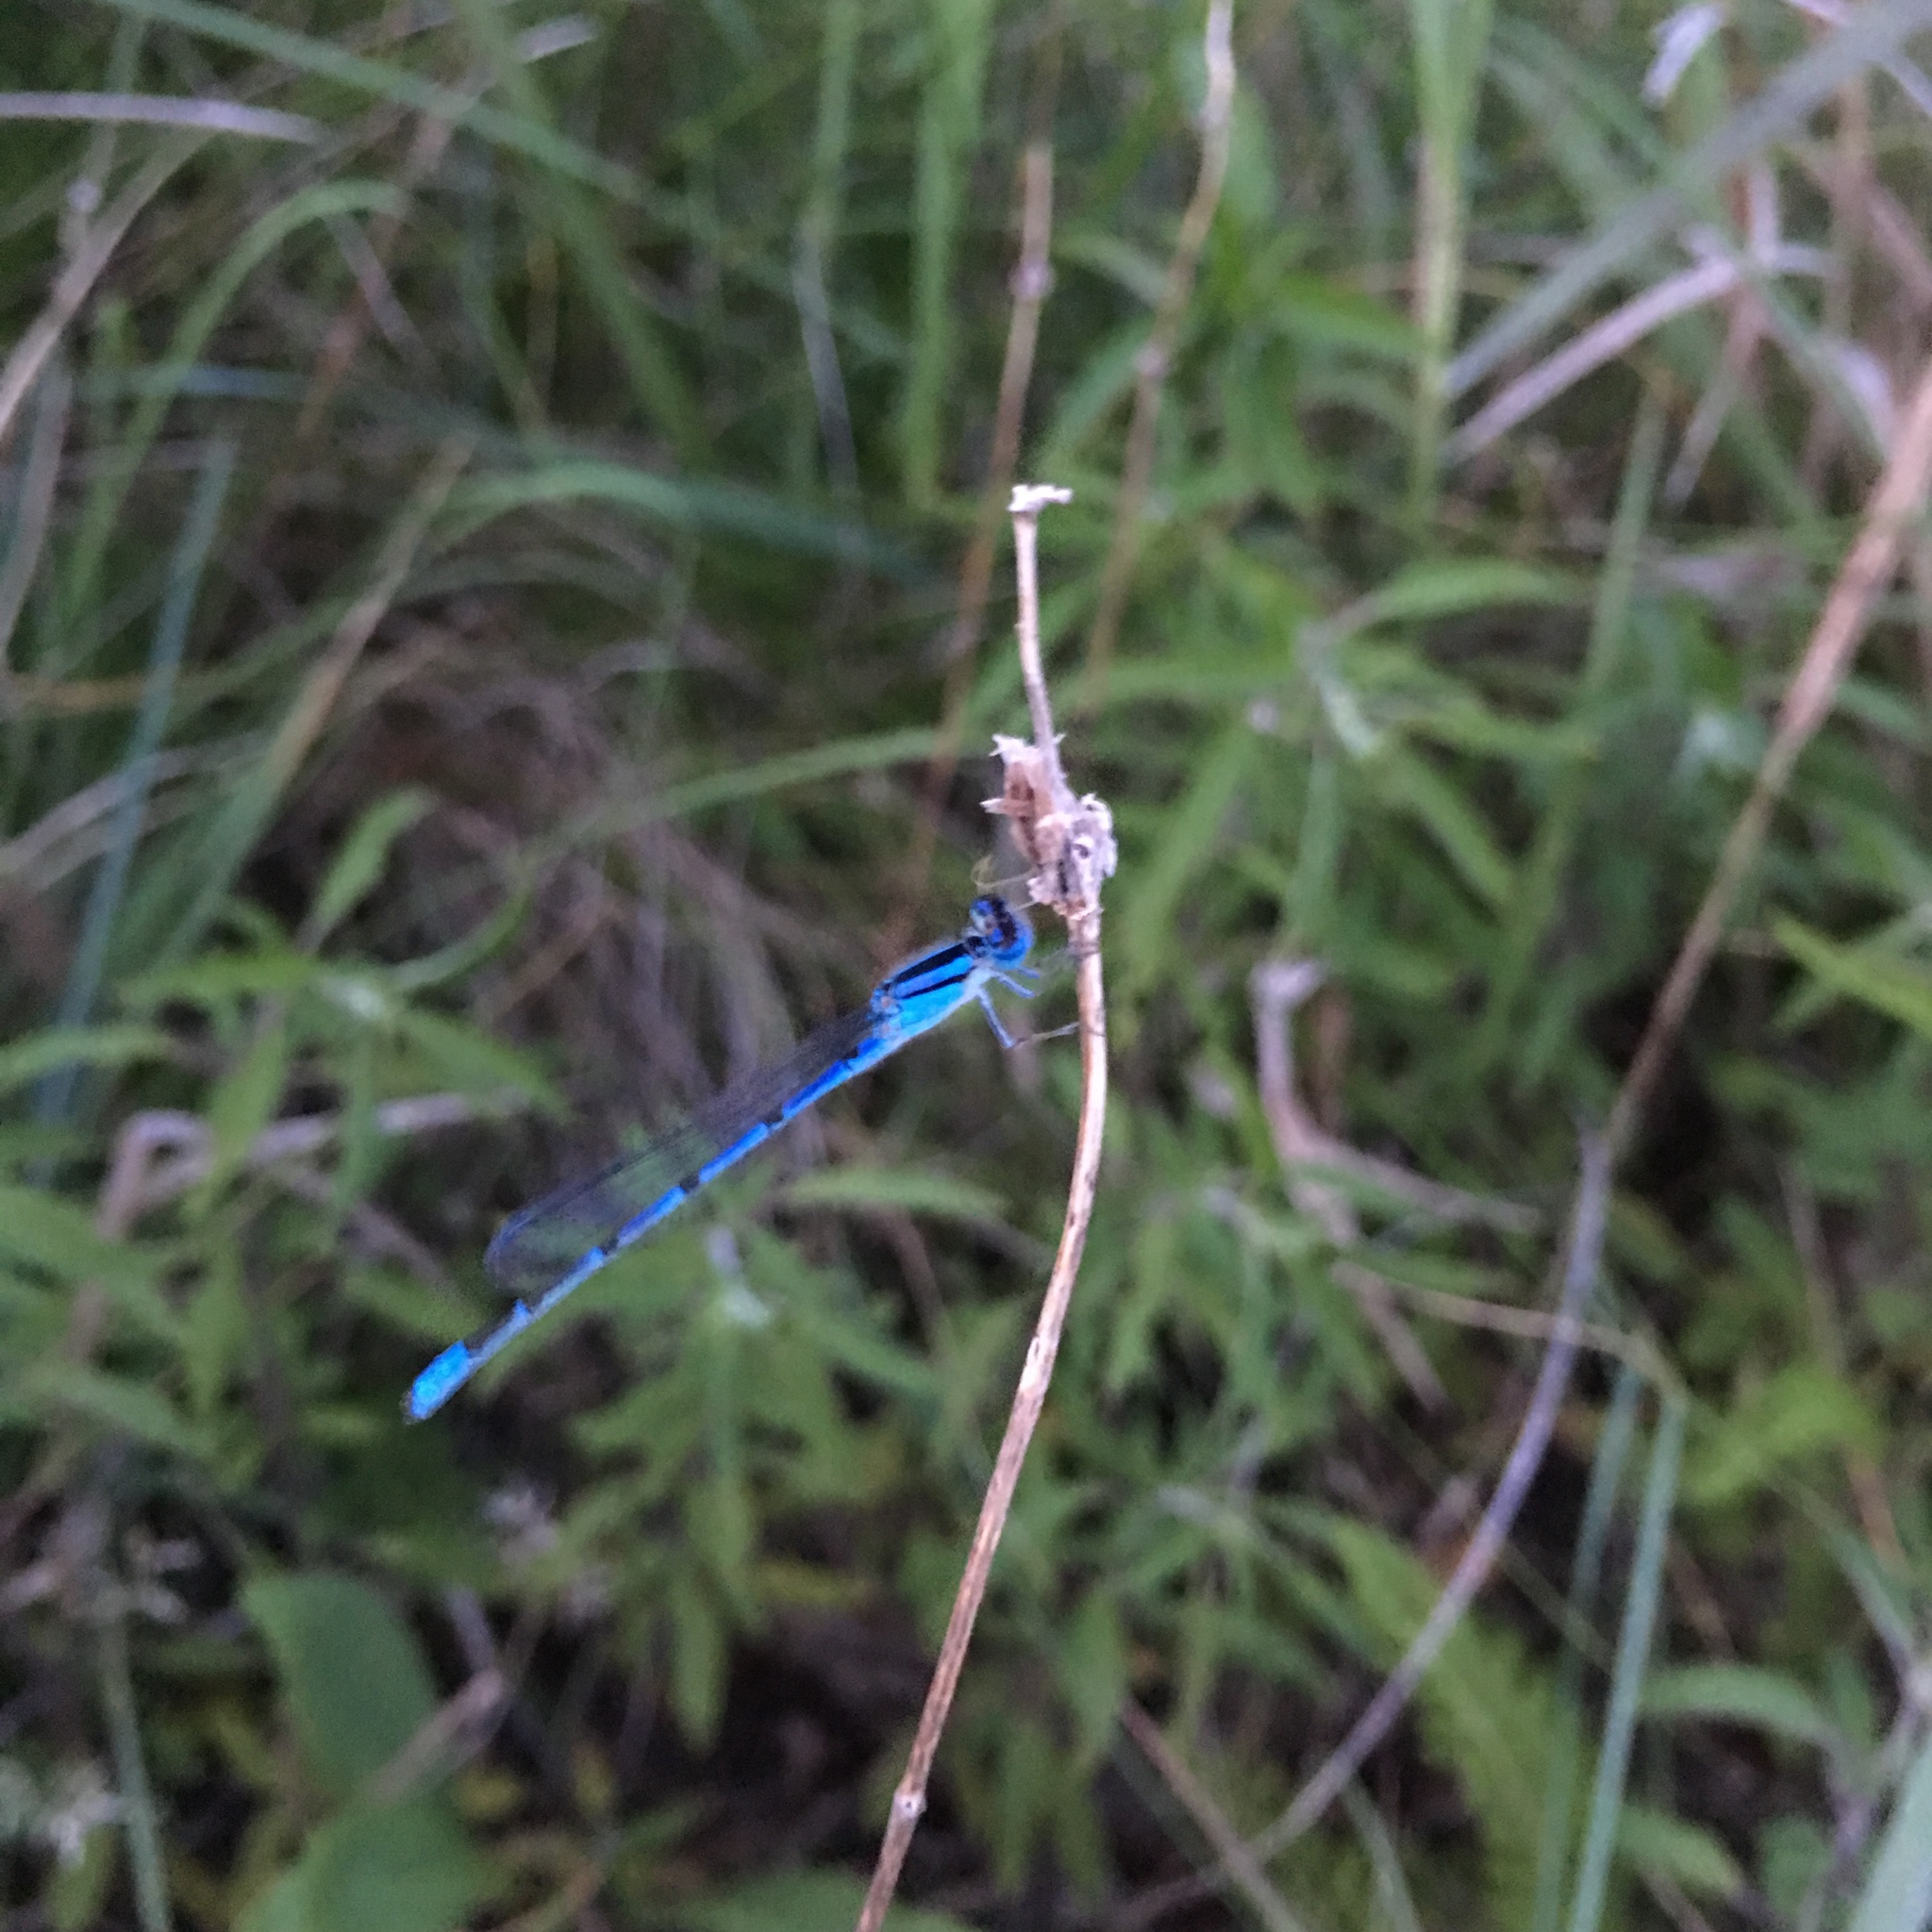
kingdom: Animalia
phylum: Arthropoda
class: Insecta
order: Odonata
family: Coenagrionidae
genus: Enallagma
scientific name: Enallagma civile
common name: Damselfly
